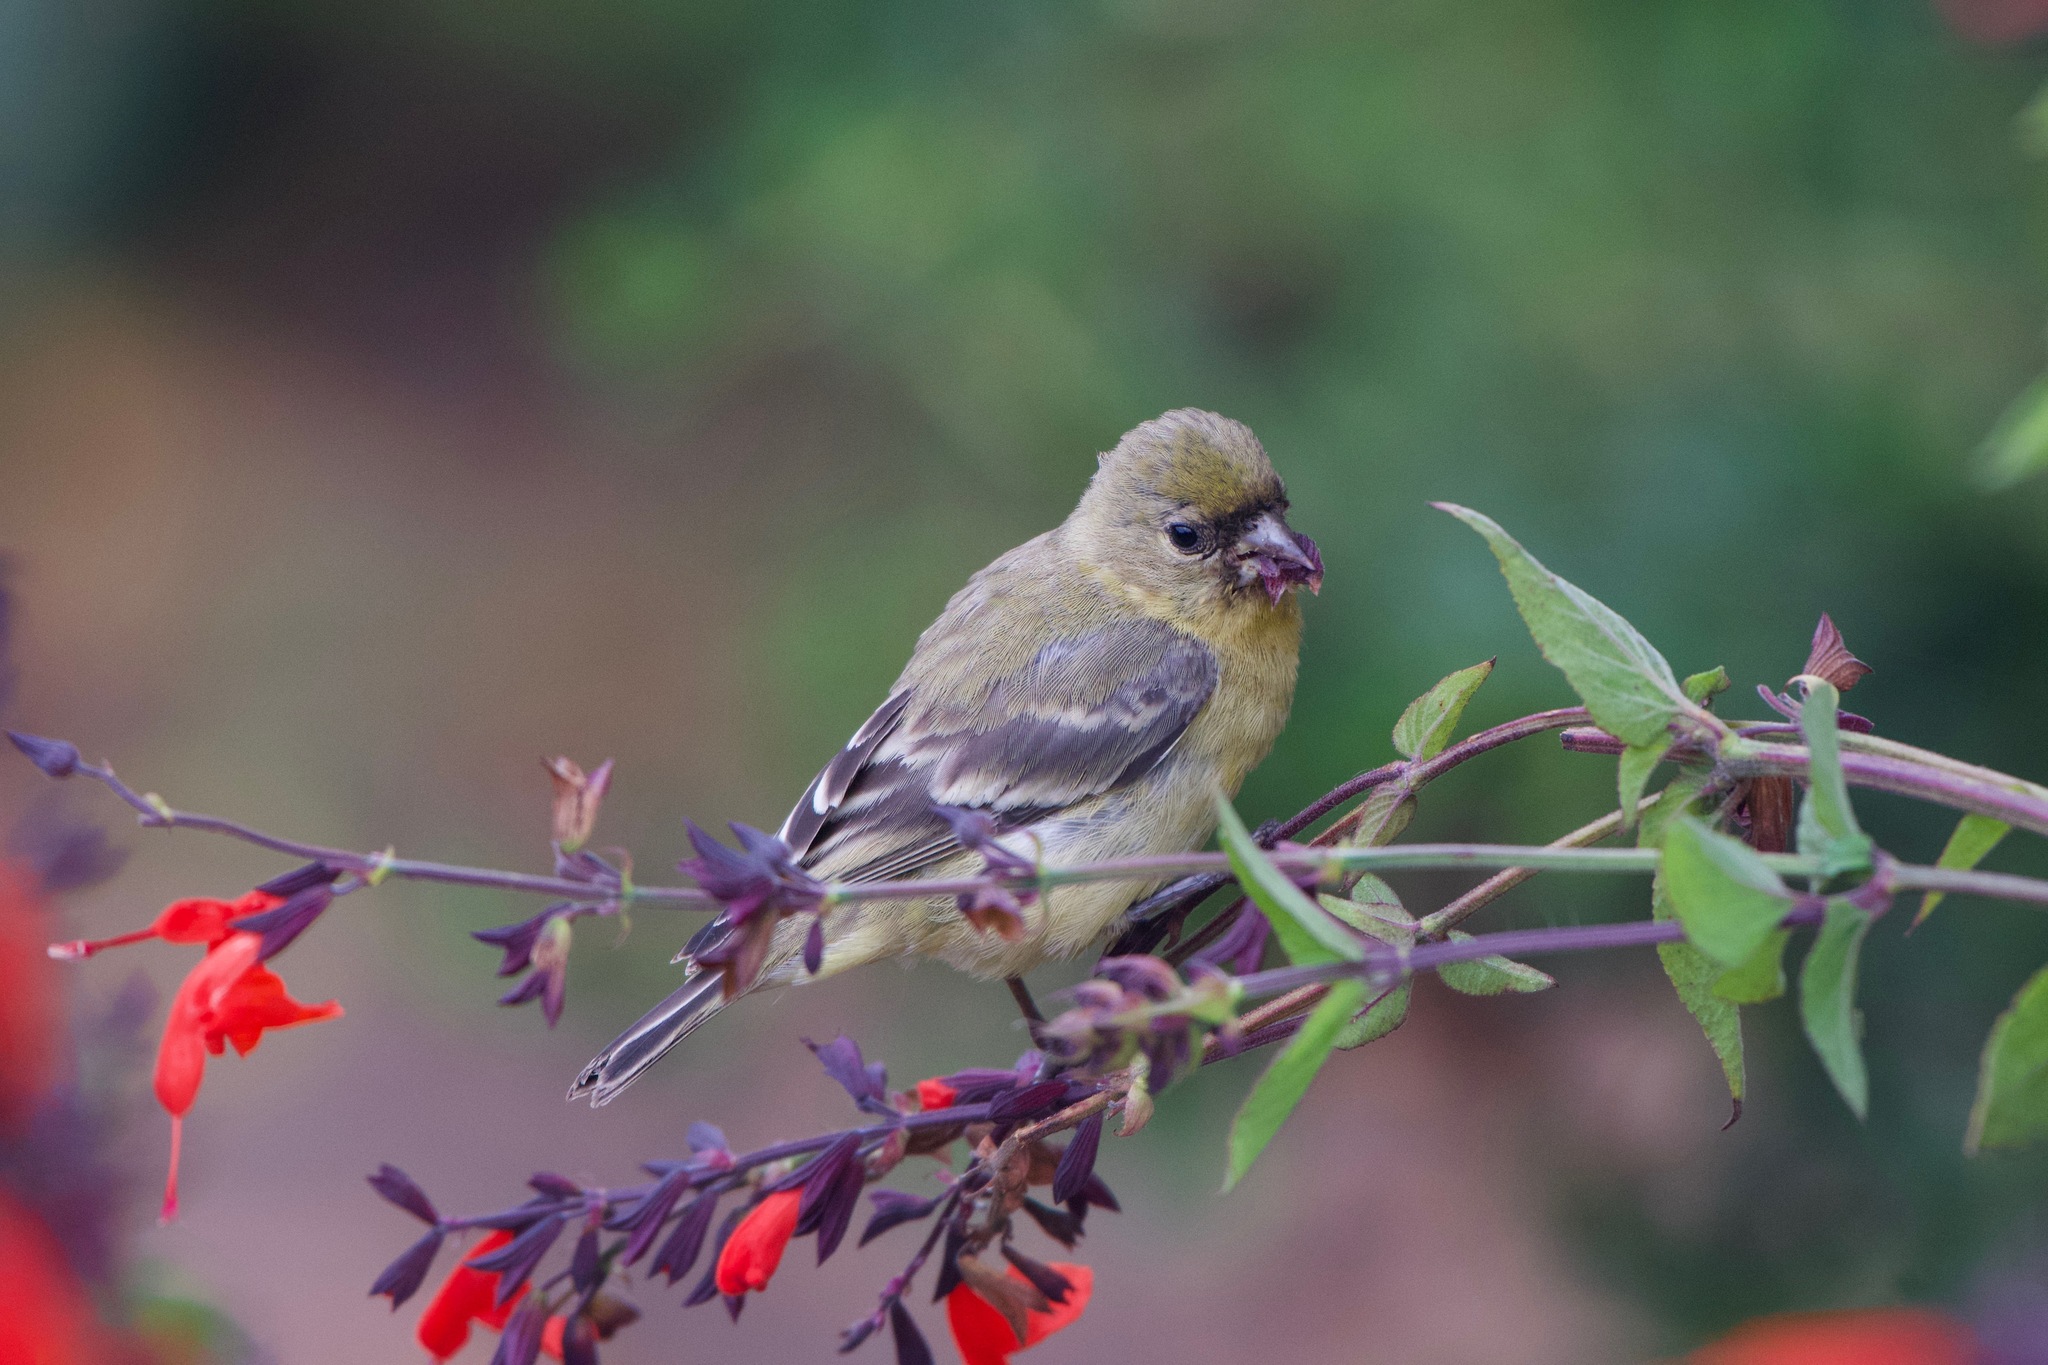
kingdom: Animalia
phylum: Chordata
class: Aves
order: Passeriformes
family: Fringillidae
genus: Spinus
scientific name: Spinus psaltria
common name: Lesser goldfinch
